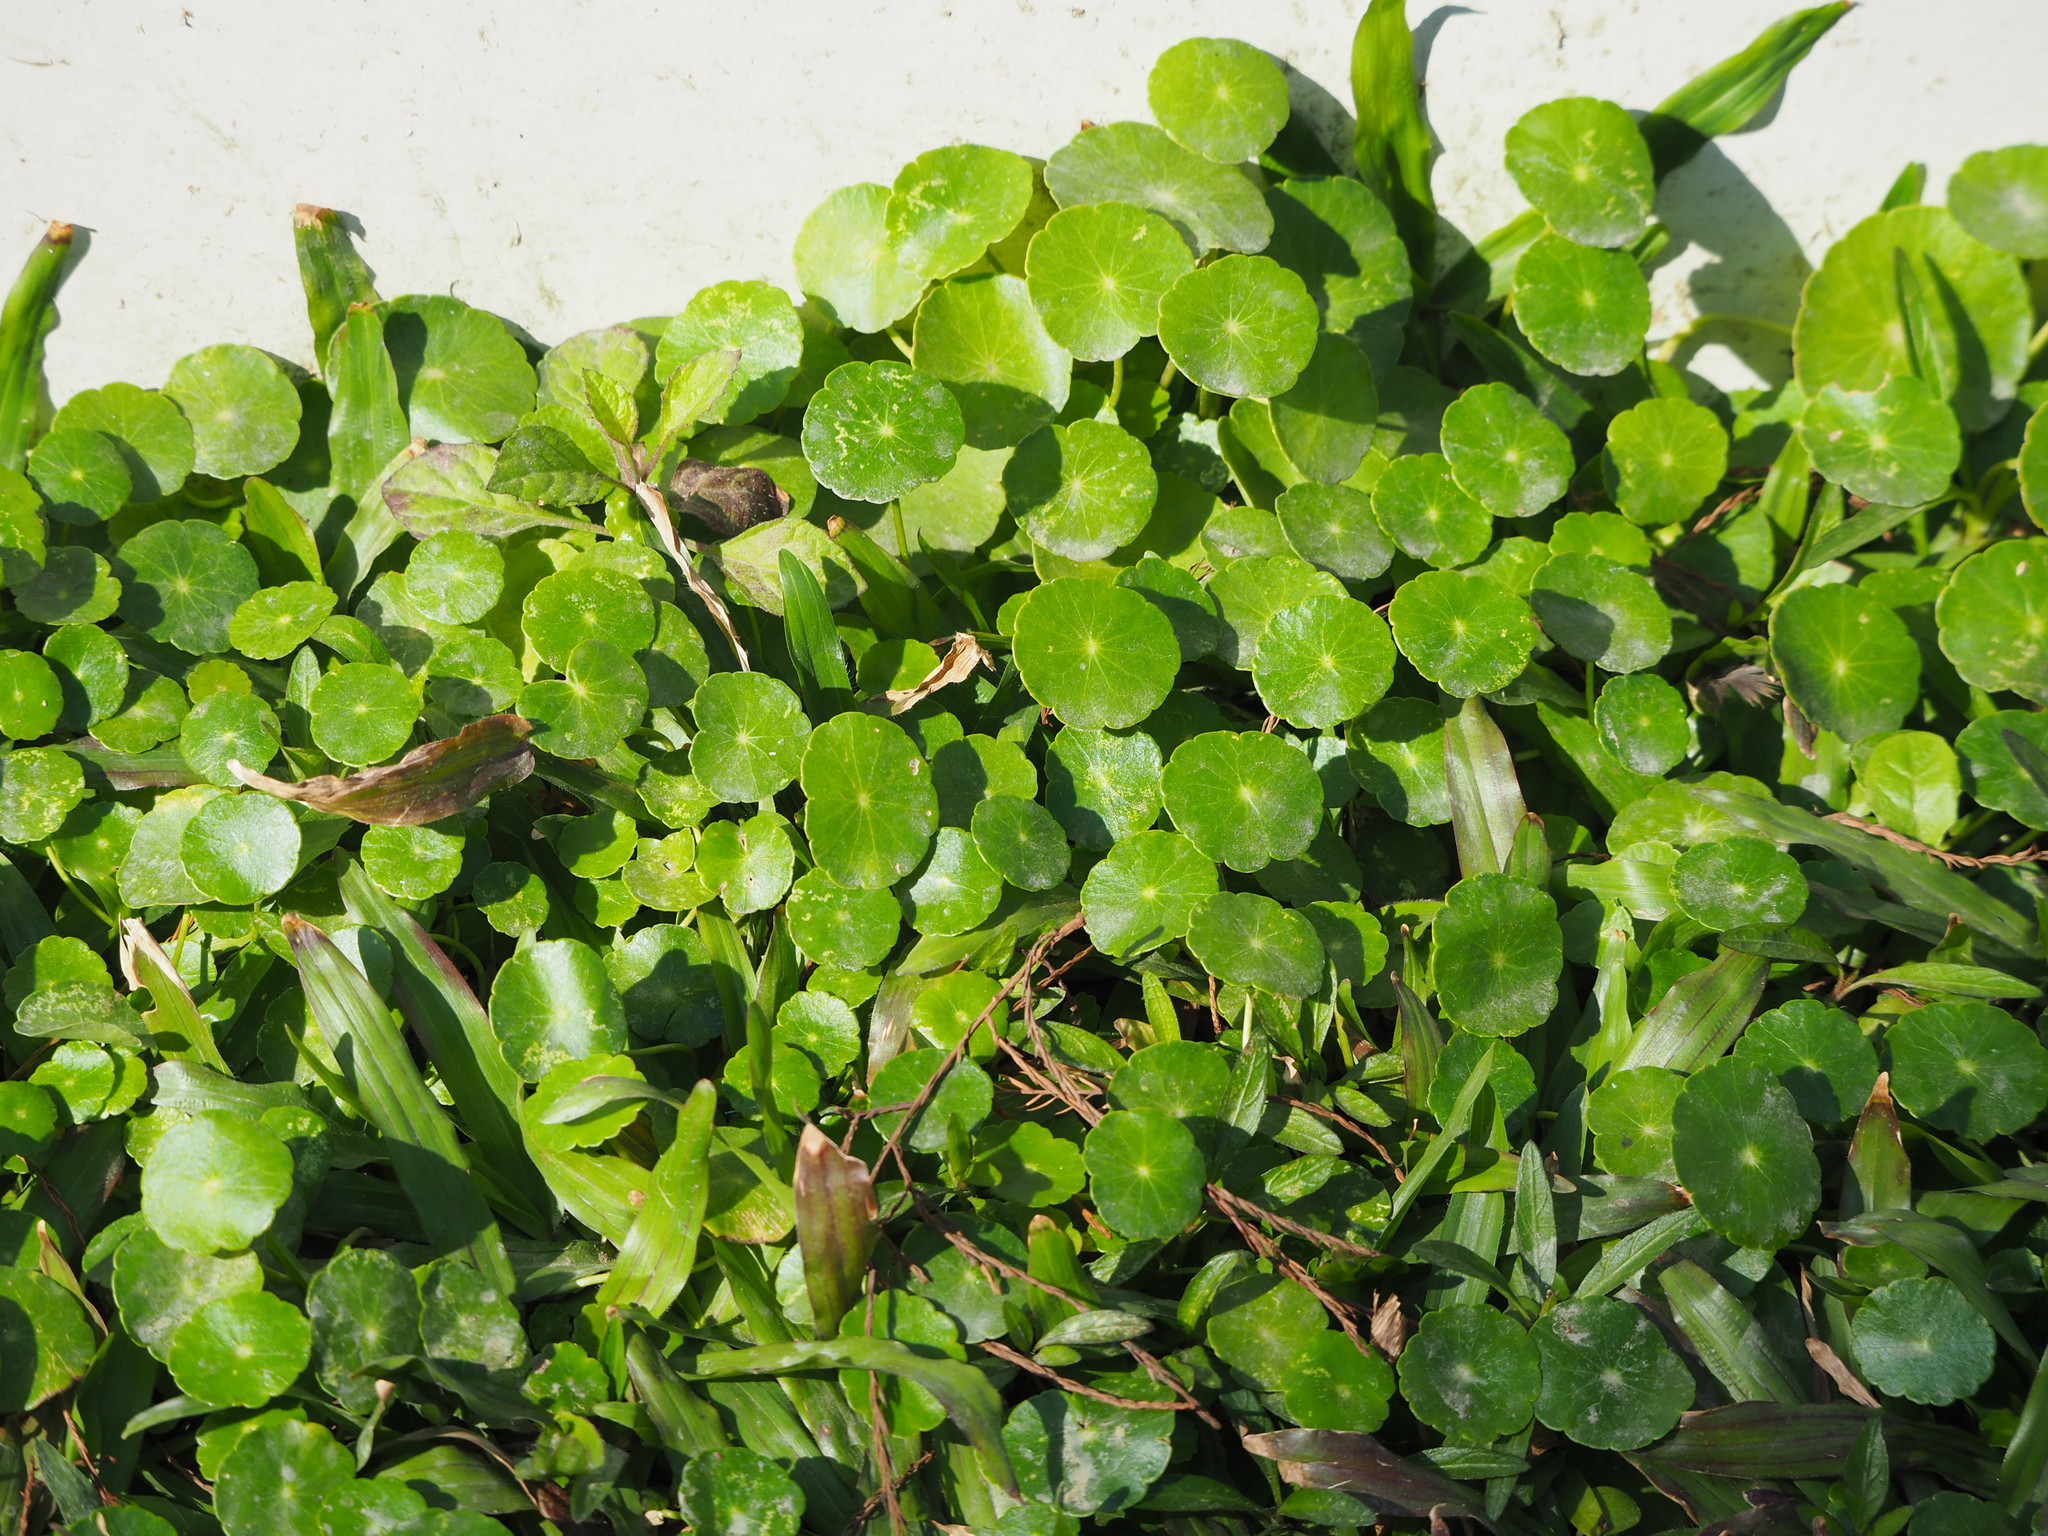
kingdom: Plantae
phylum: Tracheophyta
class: Magnoliopsida
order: Apiales
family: Araliaceae
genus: Hydrocotyle
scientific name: Hydrocotyle verticillata
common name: Whorled marshpennywort
